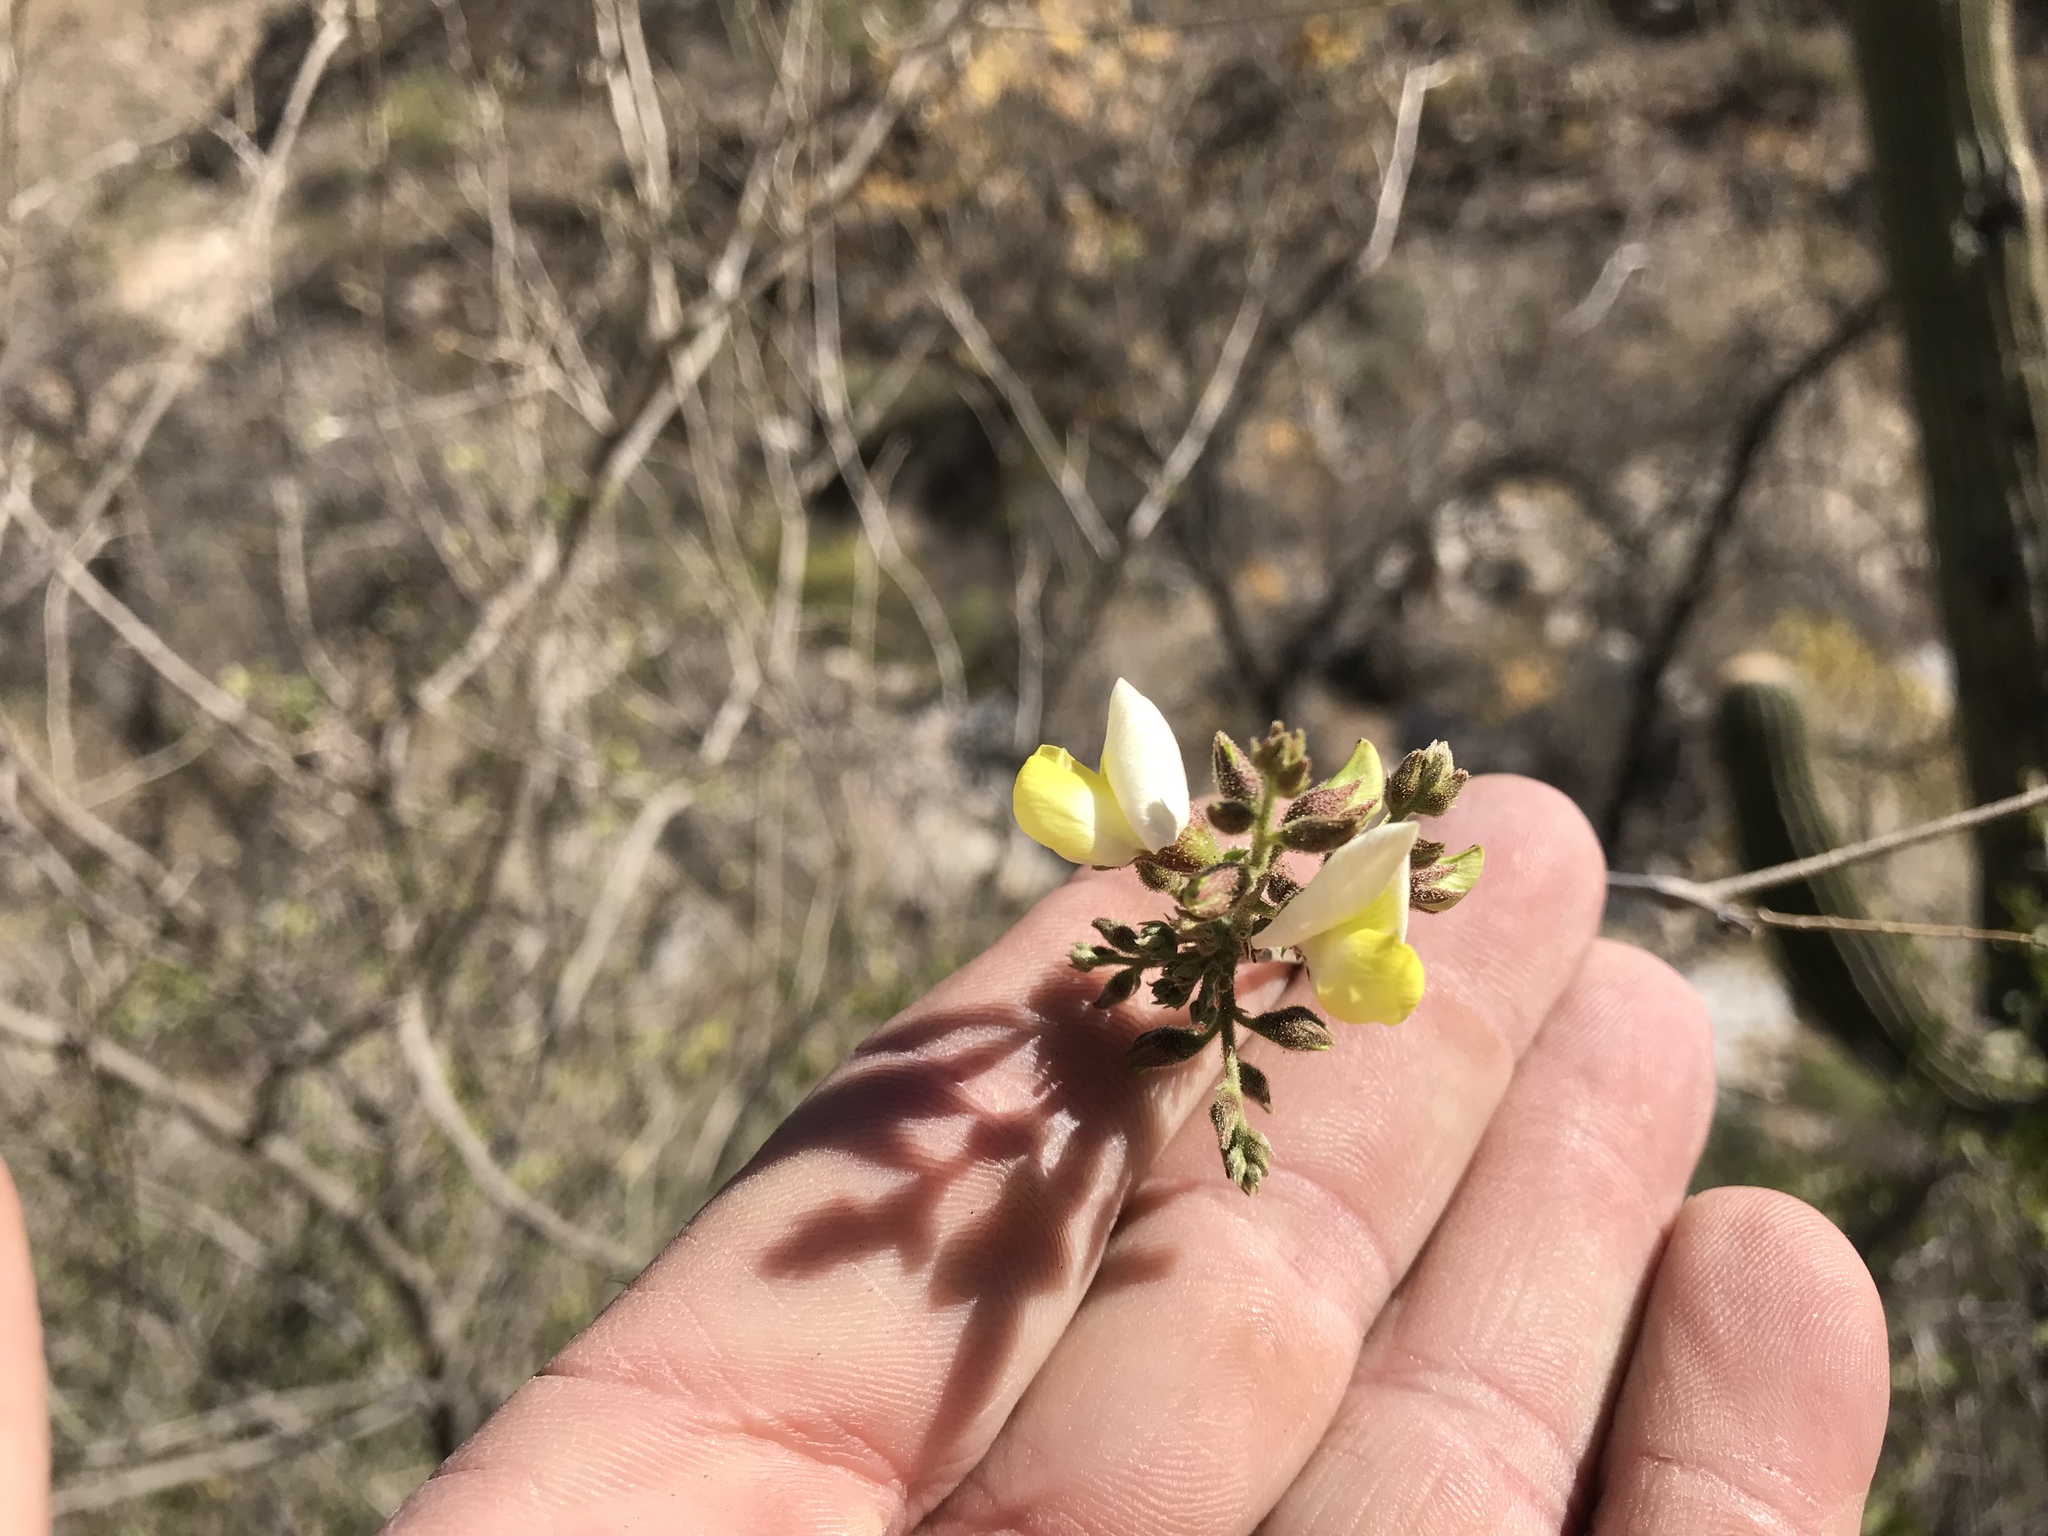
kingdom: Plantae
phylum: Tracheophyta
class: Magnoliopsida
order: Fabales
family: Fabaceae
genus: Coursetia
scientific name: Coursetia glandulosa
